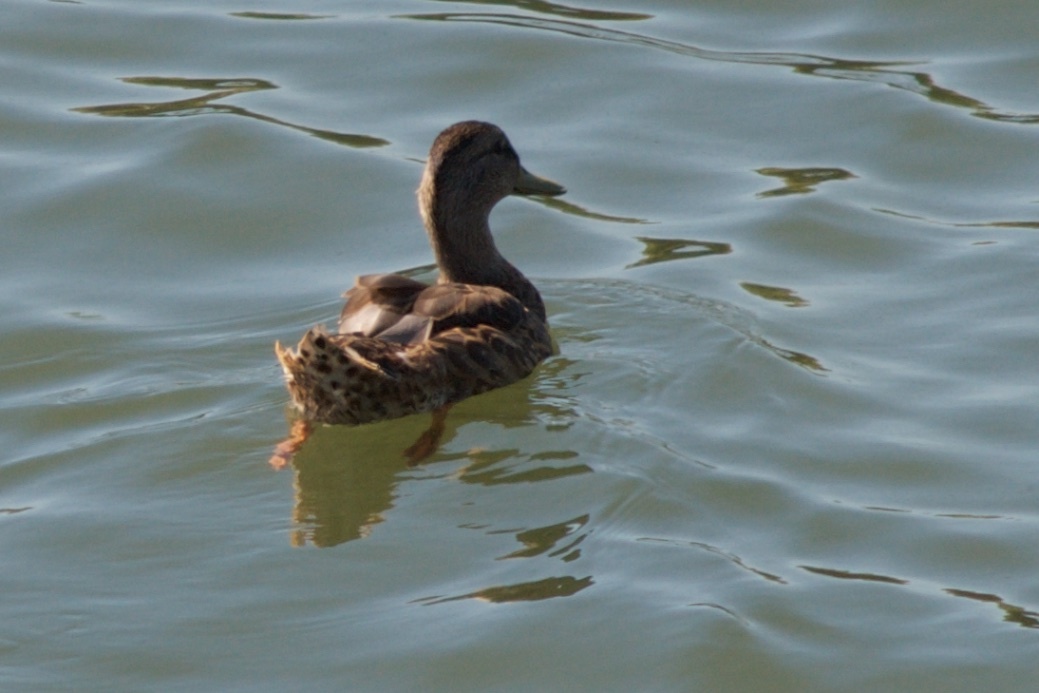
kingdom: Animalia
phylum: Chordata
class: Aves
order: Anseriformes
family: Anatidae
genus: Anas
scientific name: Anas platyrhynchos
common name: Mallard
